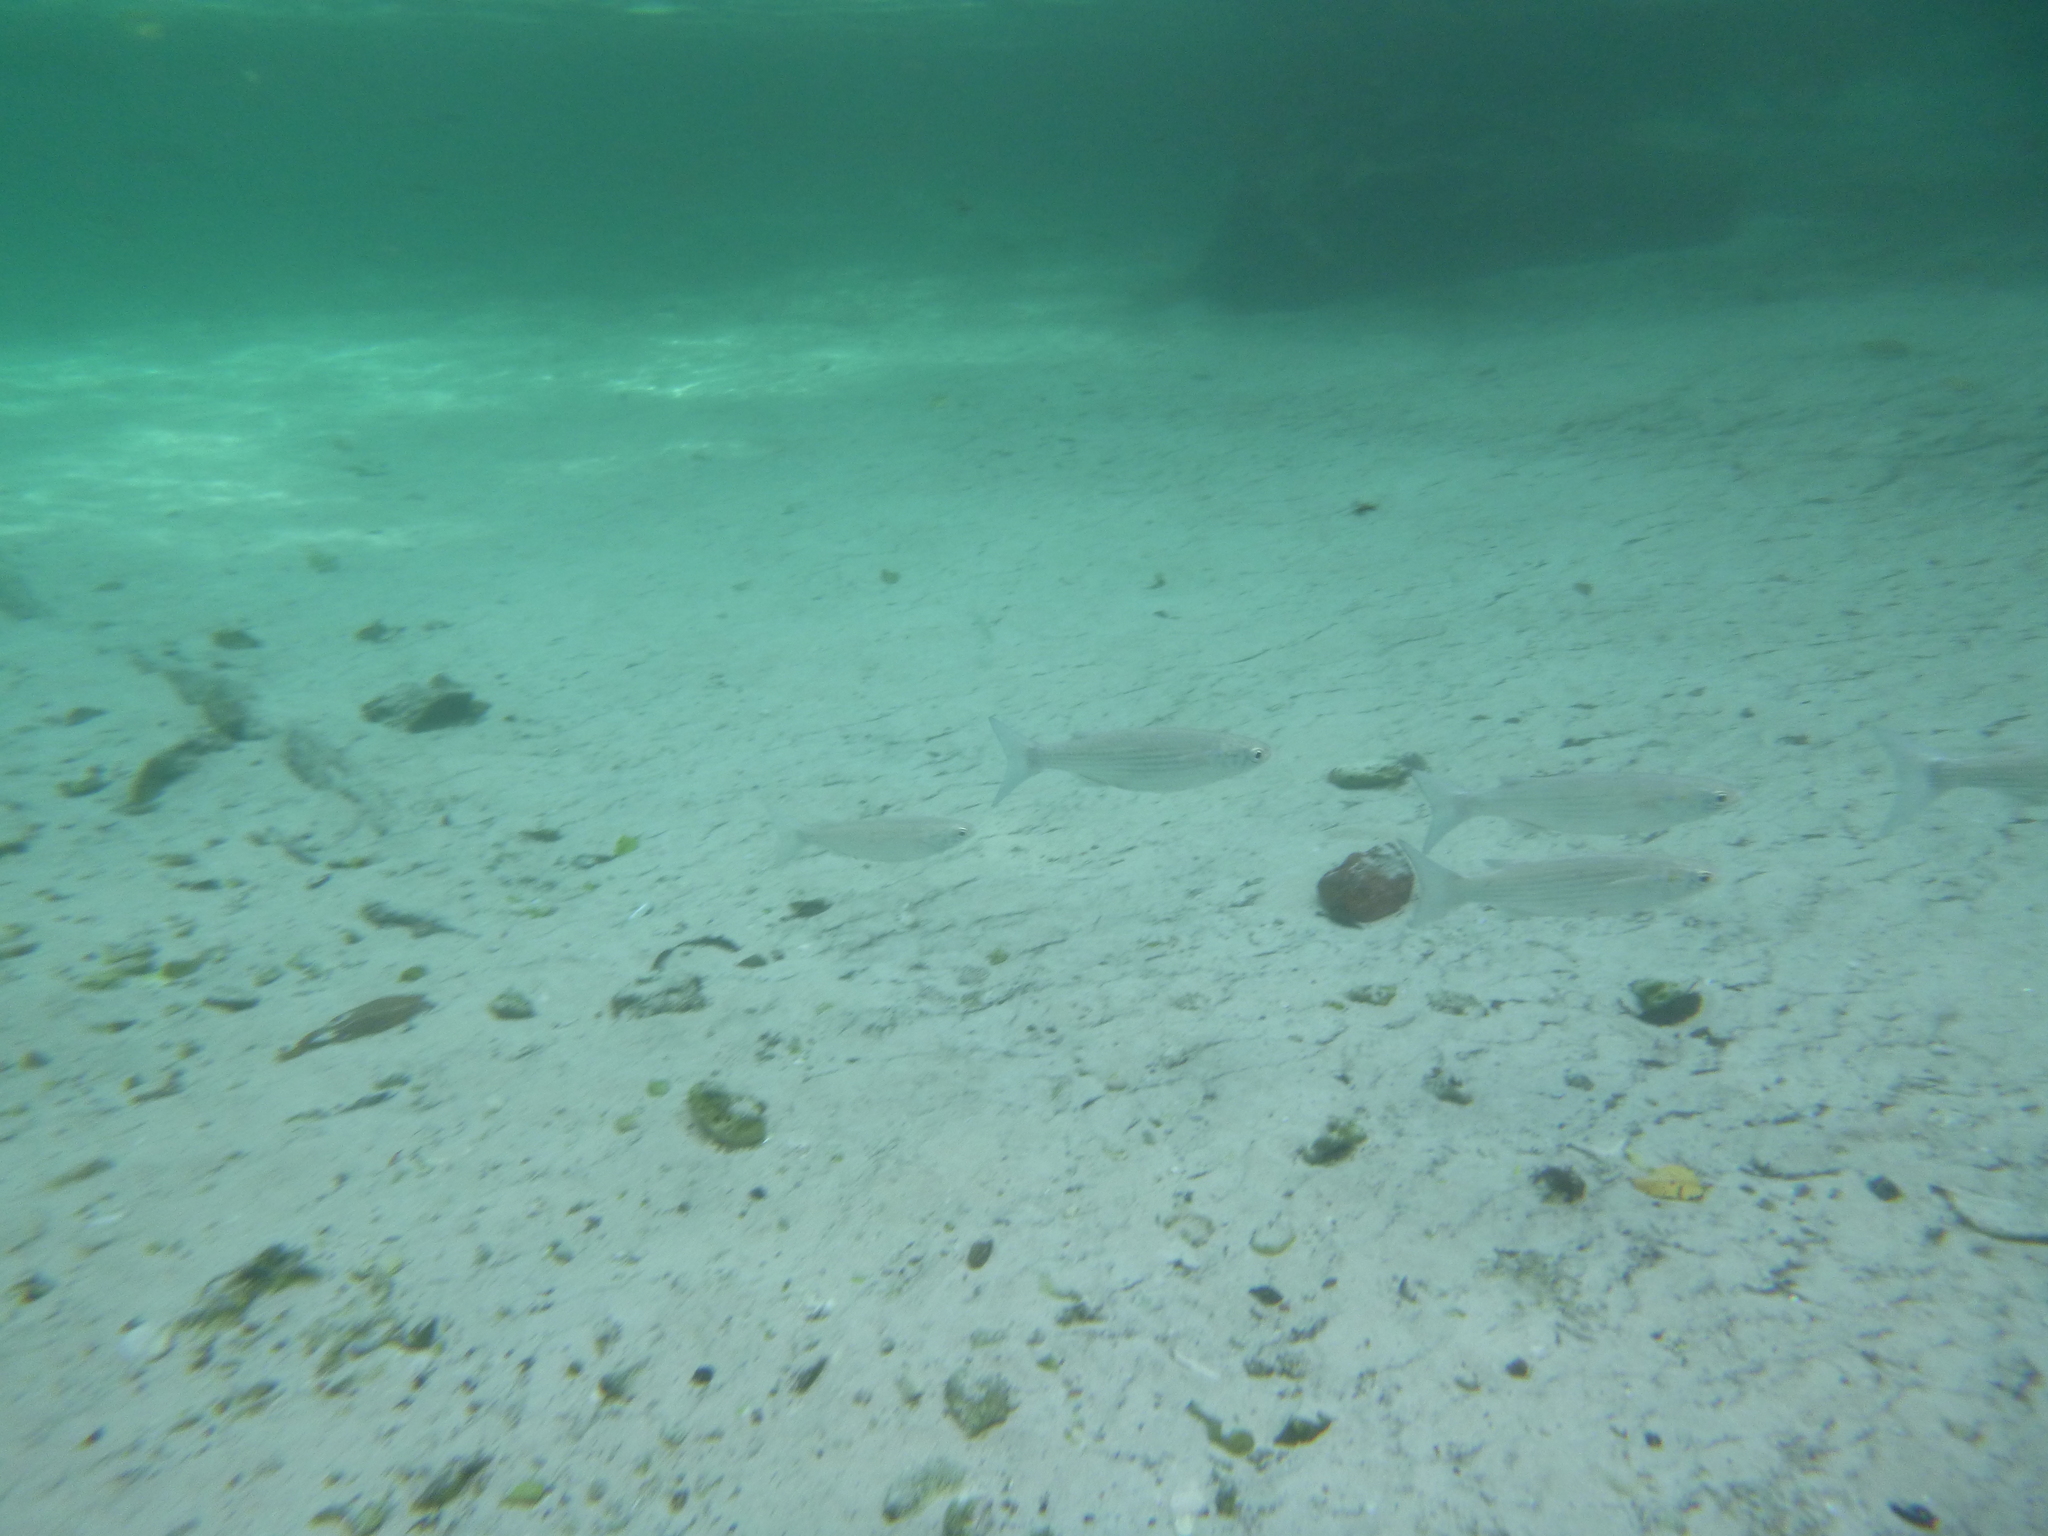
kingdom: Animalia
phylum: Chordata
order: Mugiliformes
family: Mugilidae
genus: Mugil
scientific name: Mugil curema
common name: White mullet
